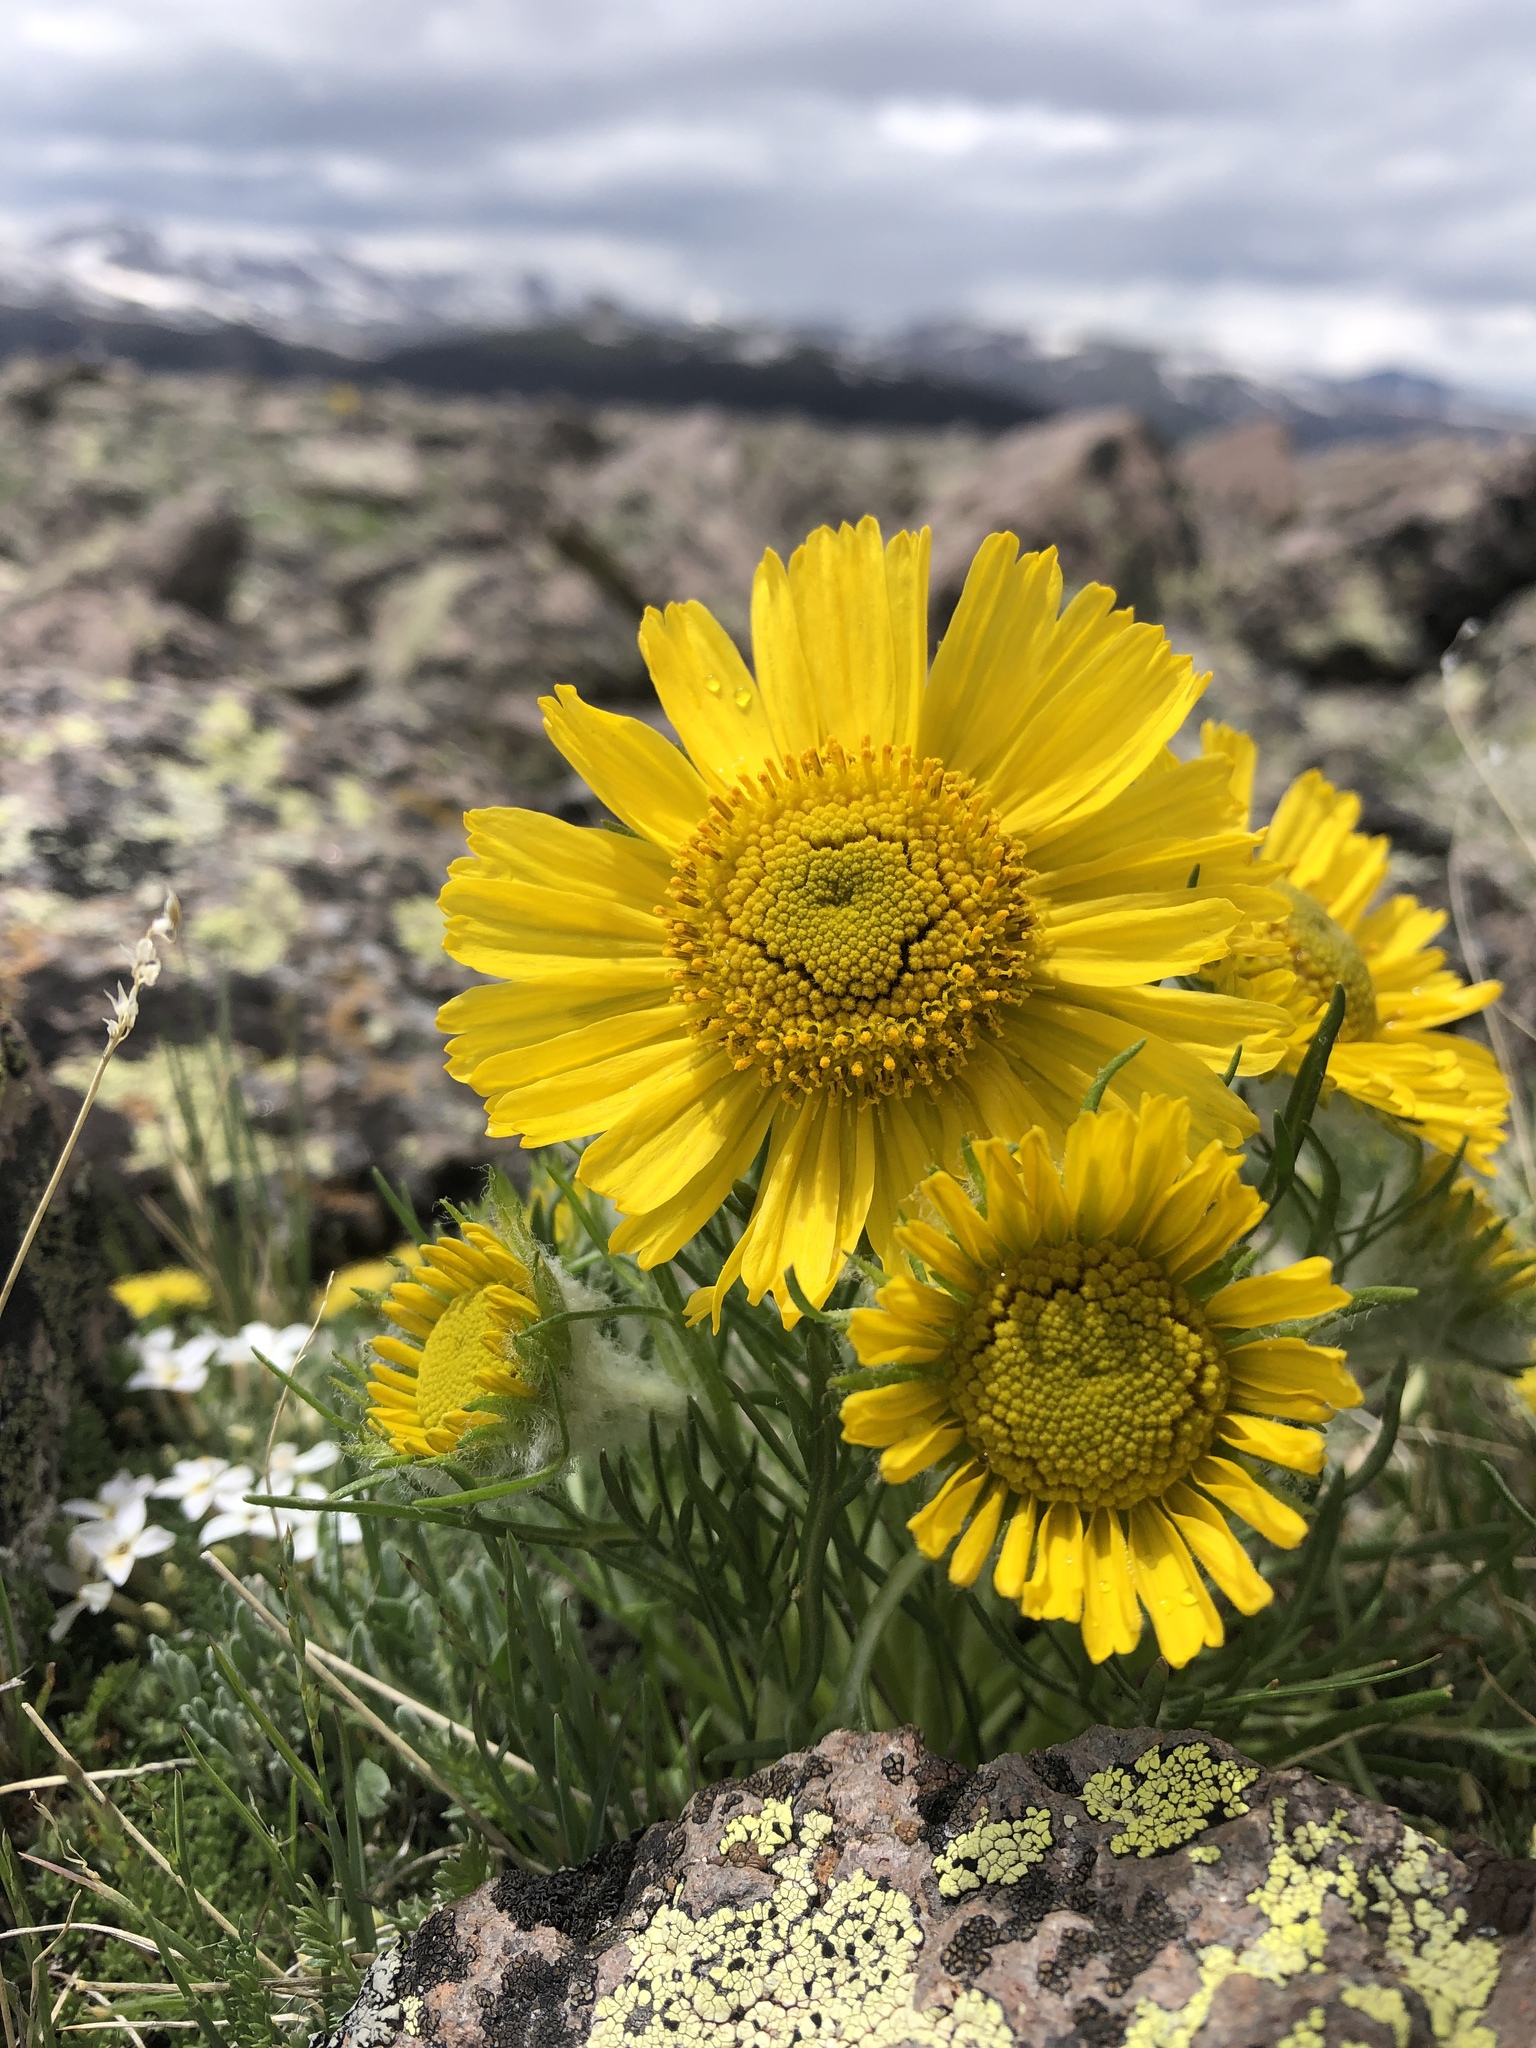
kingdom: Plantae
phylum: Tracheophyta
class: Magnoliopsida
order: Asterales
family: Asteraceae
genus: Hymenoxys
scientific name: Hymenoxys grandiflora
